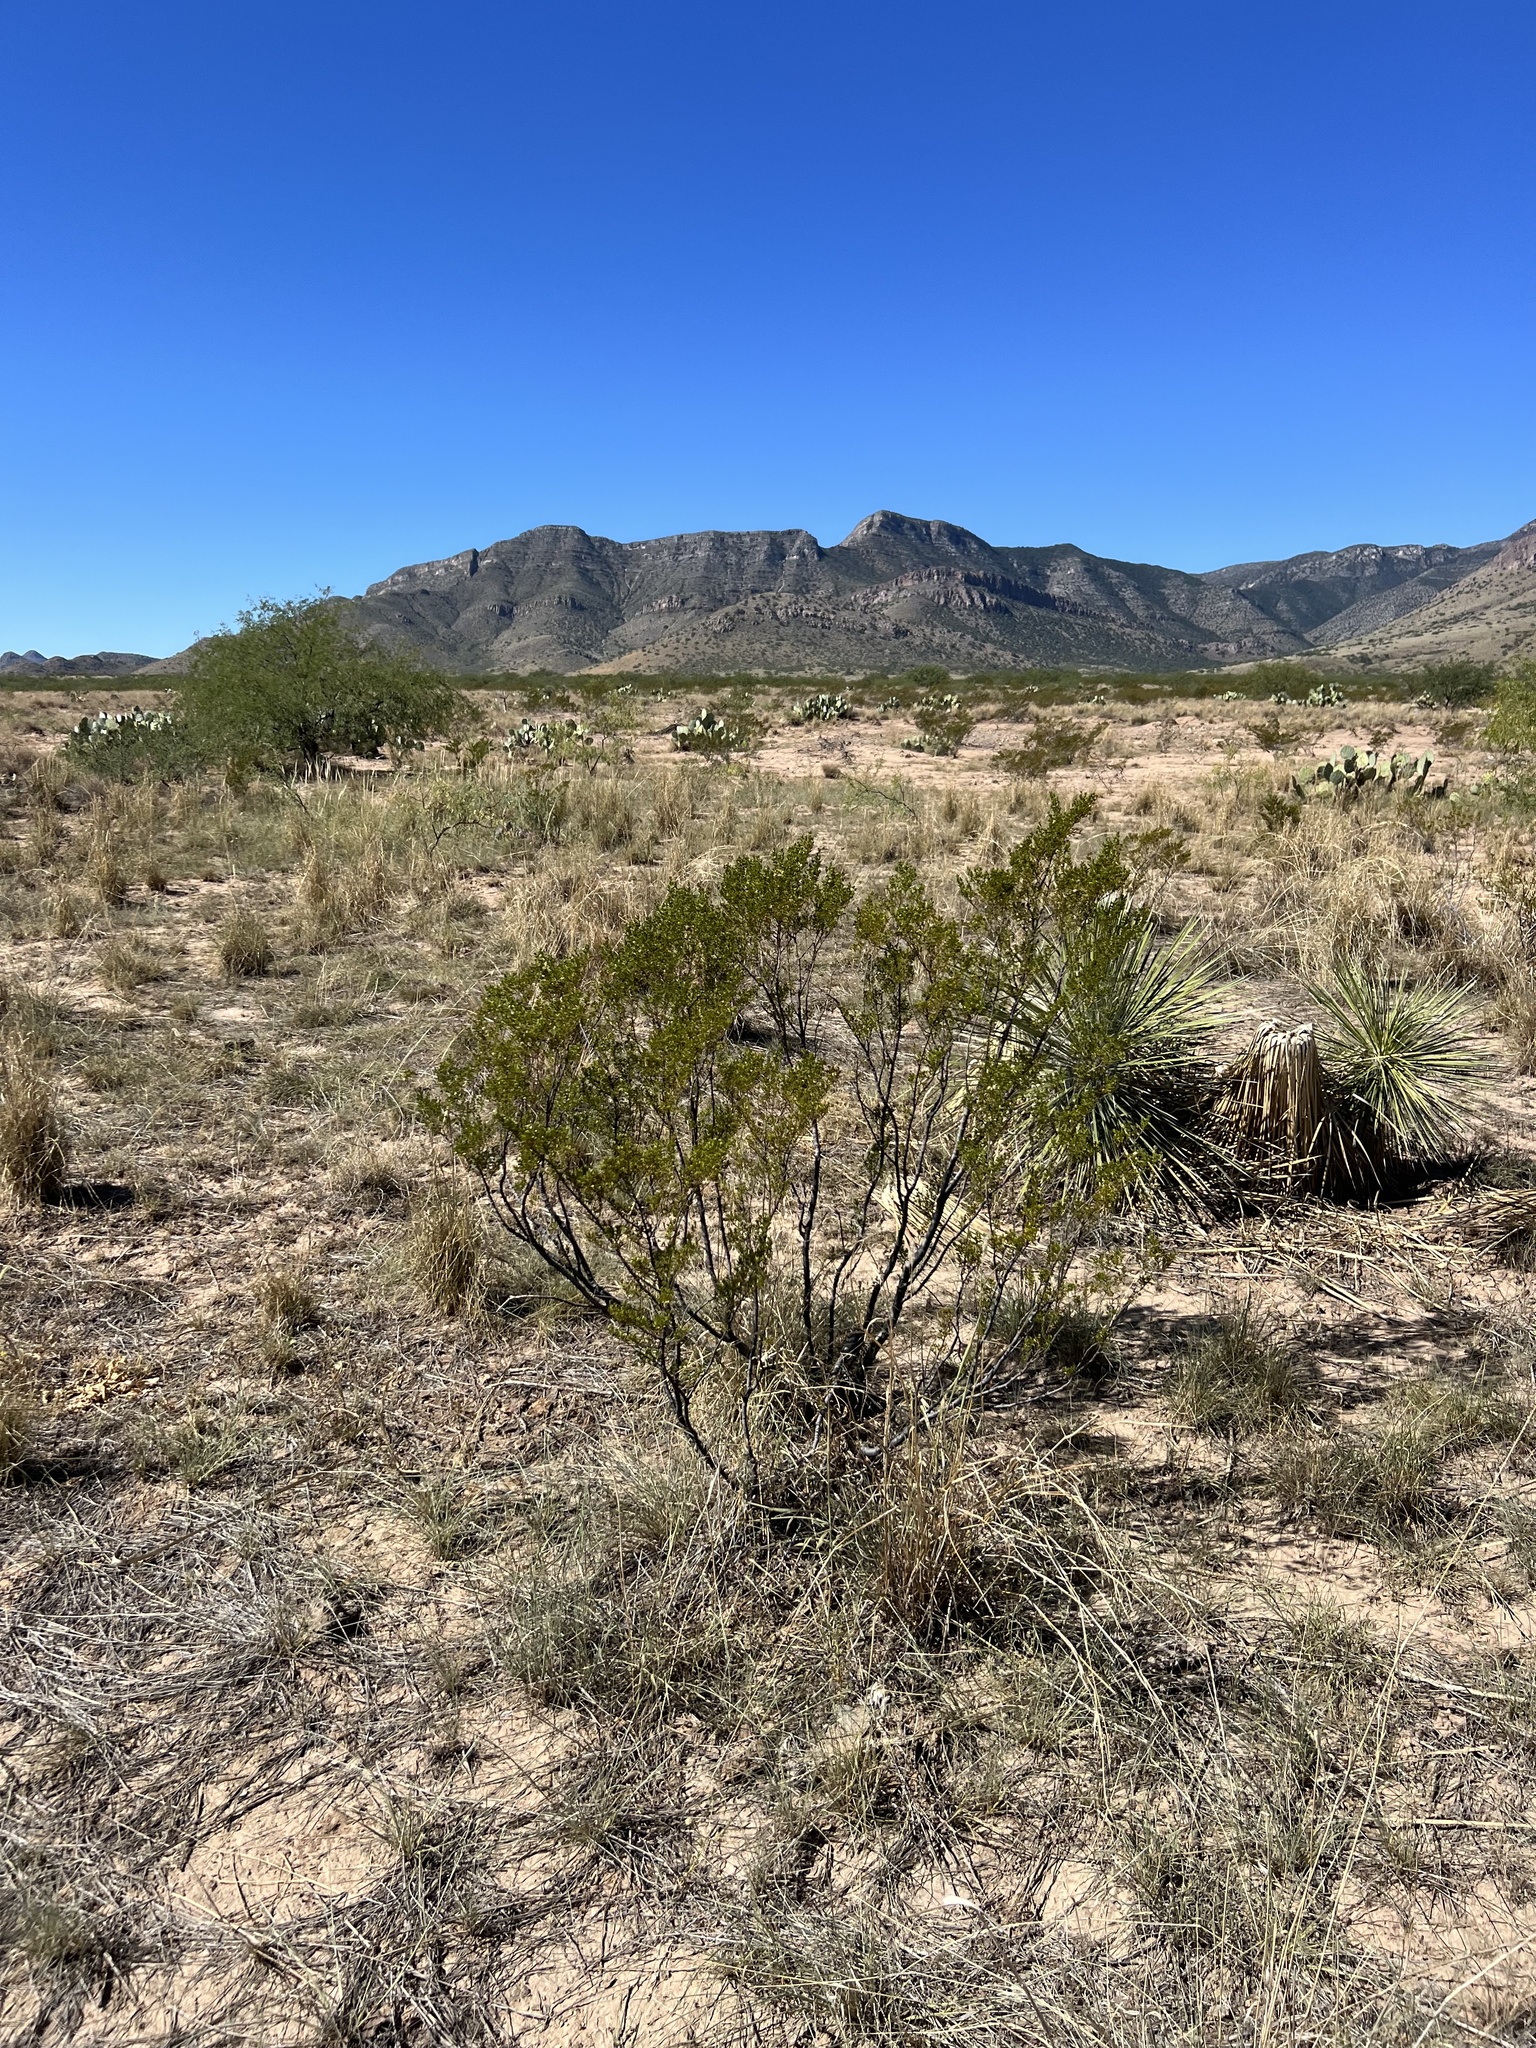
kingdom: Plantae
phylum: Tracheophyta
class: Magnoliopsida
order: Zygophyllales
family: Zygophyllaceae
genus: Larrea
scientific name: Larrea tridentata
